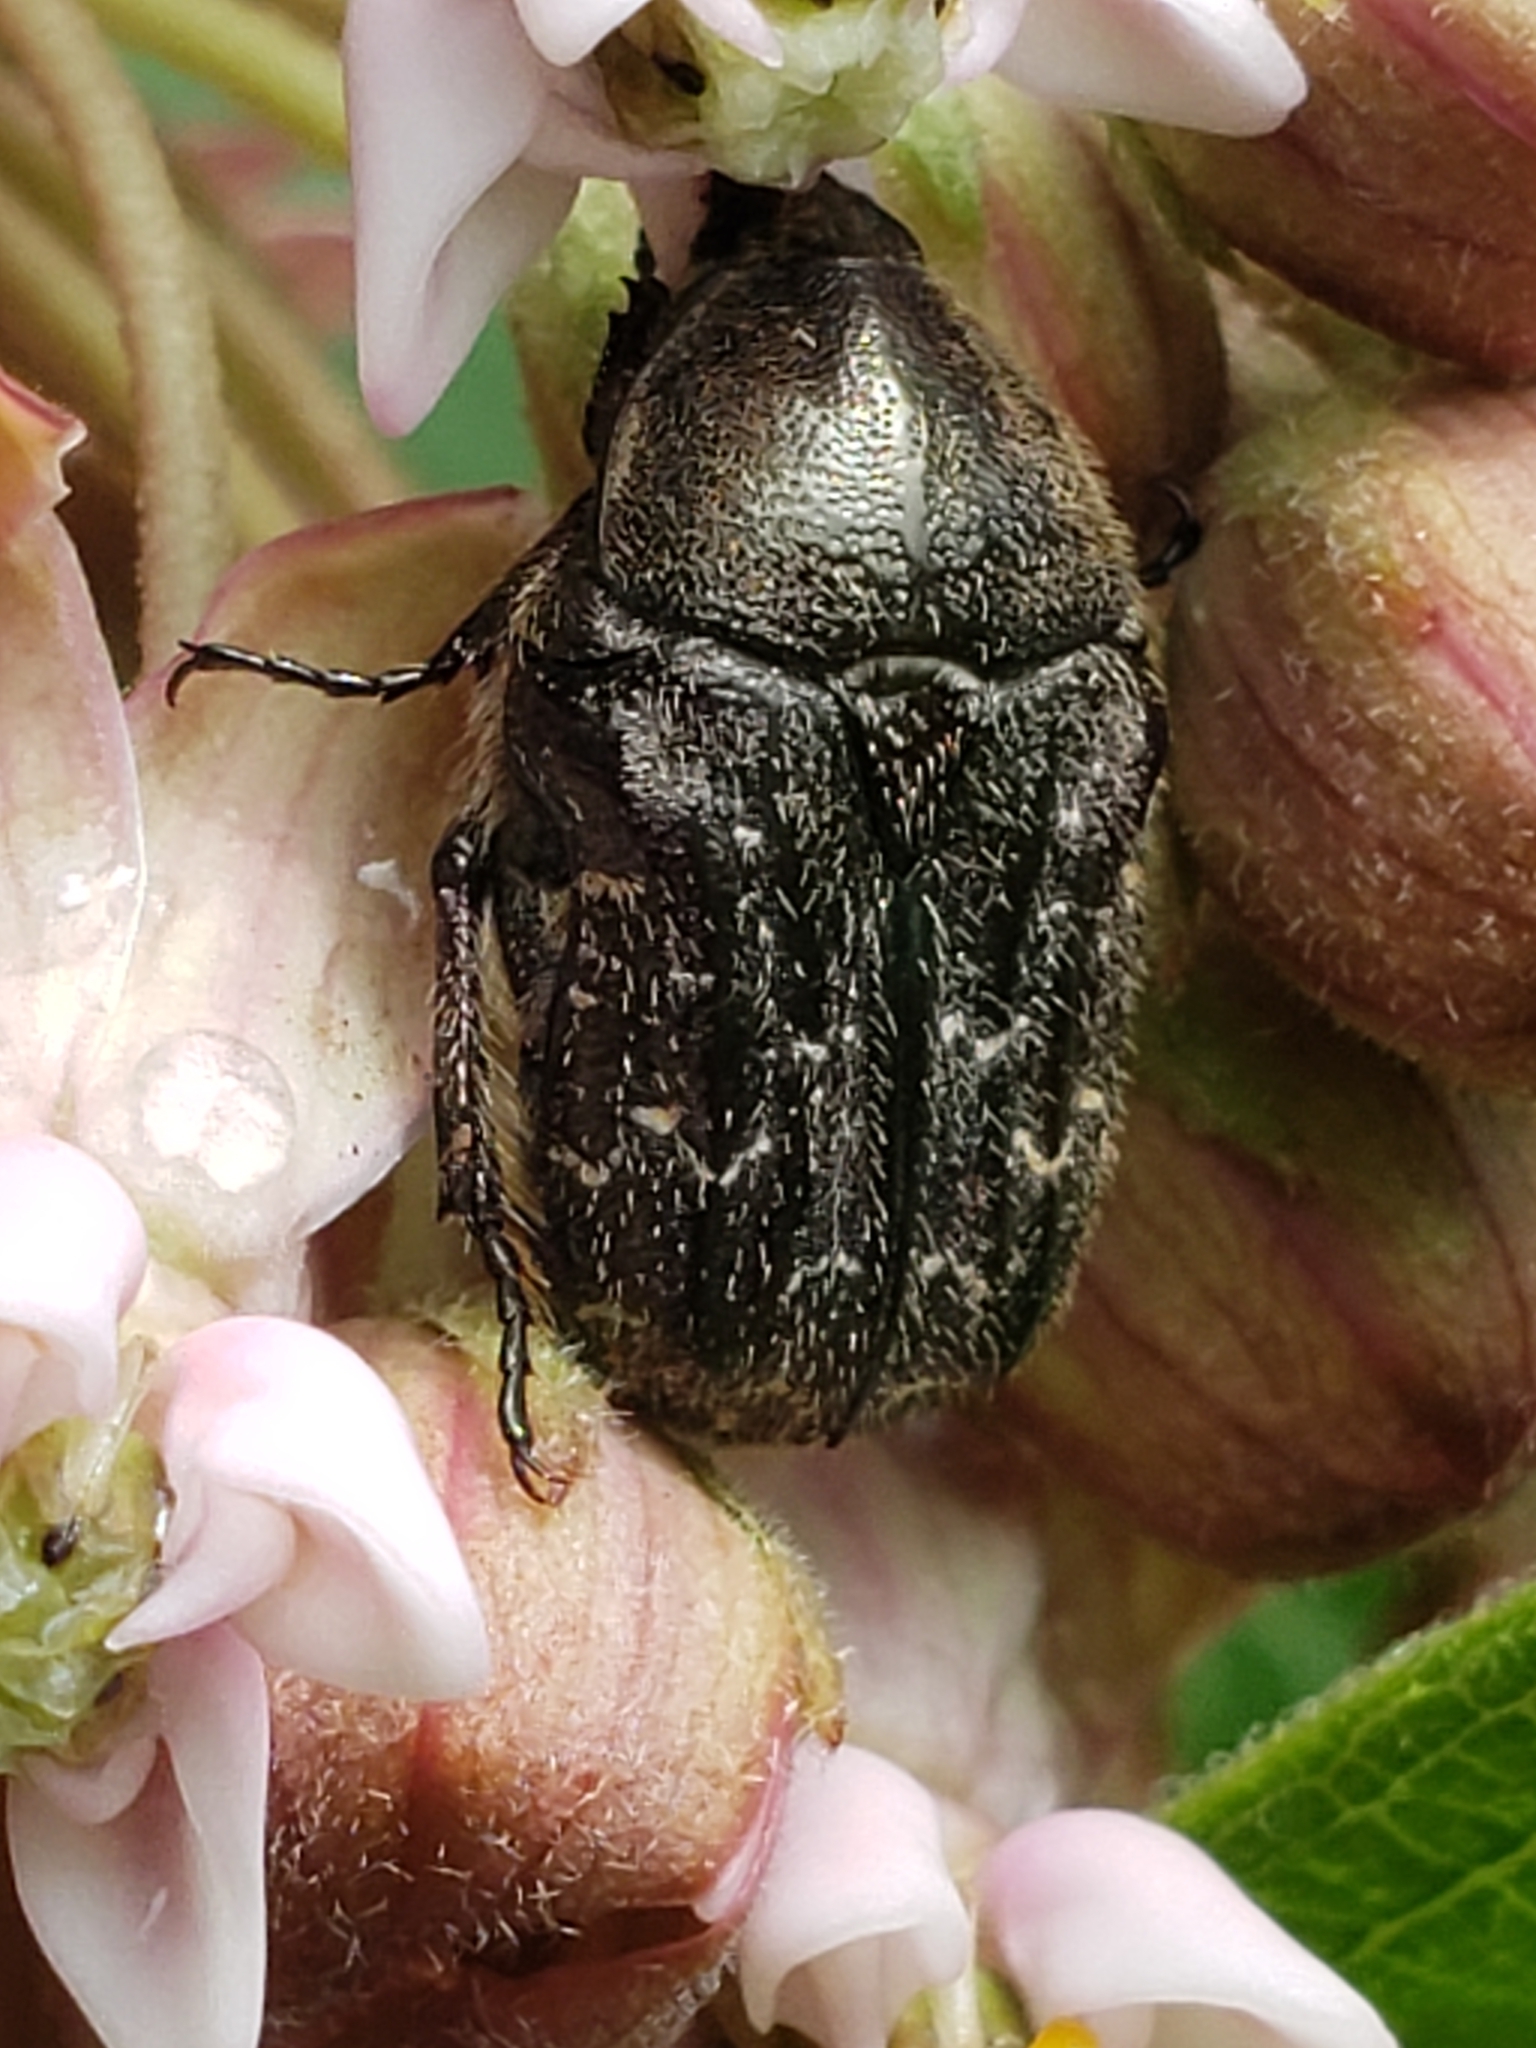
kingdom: Animalia
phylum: Arthropoda
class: Insecta
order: Coleoptera
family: Scarabaeidae
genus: Euphoria
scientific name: Euphoria sepulcralis
